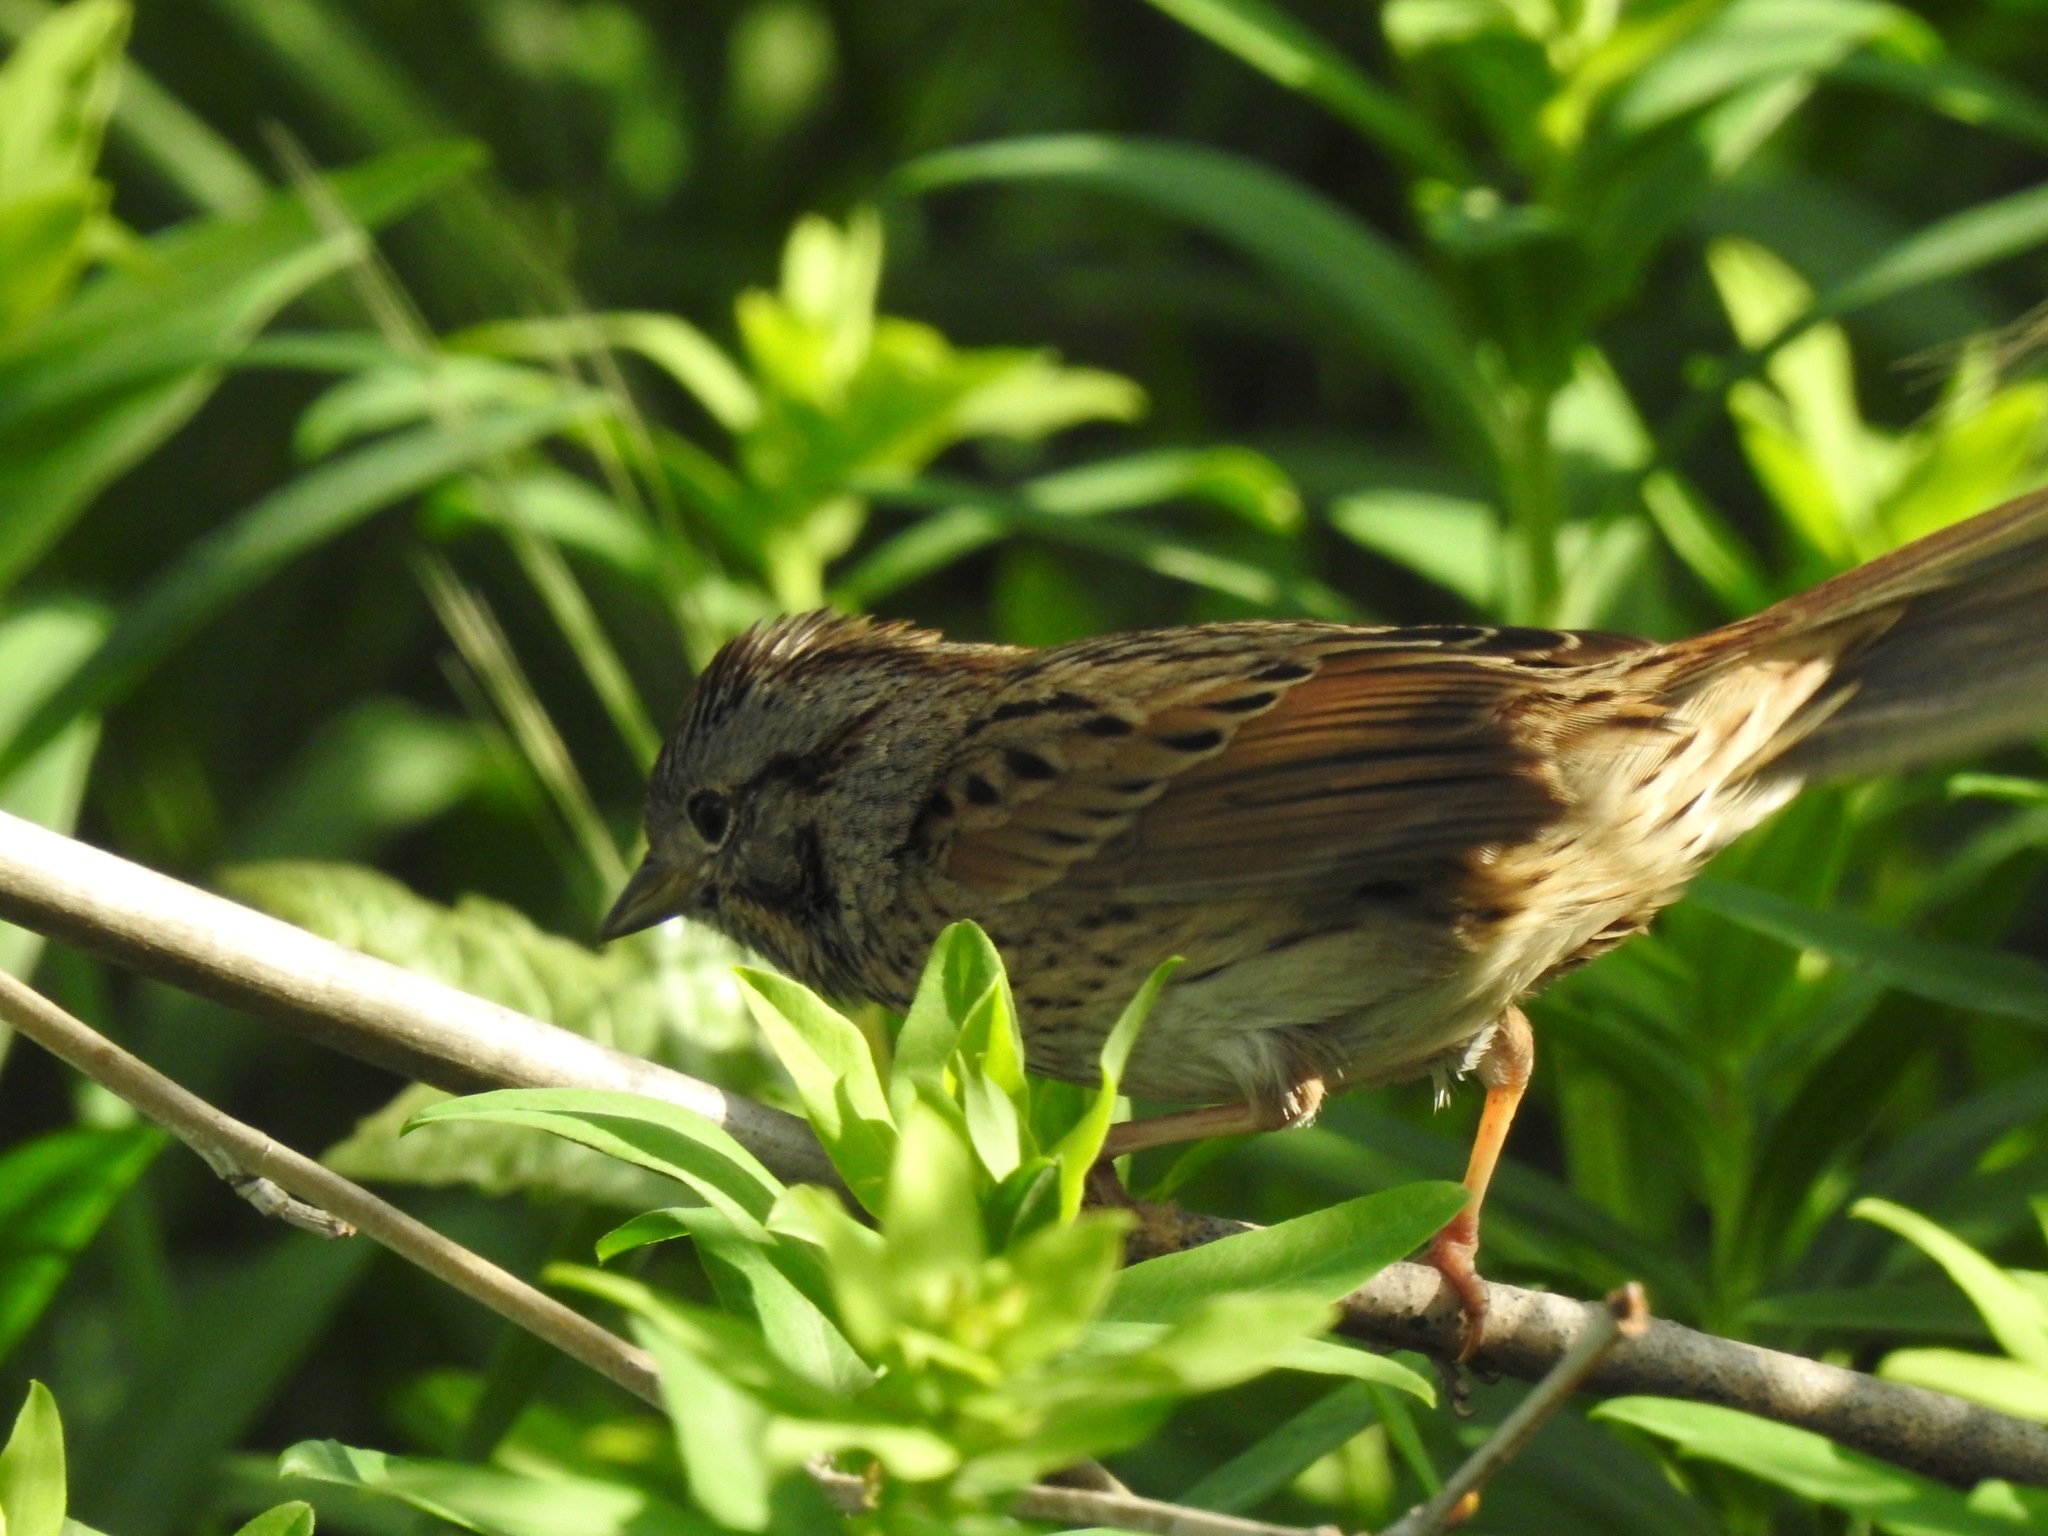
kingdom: Animalia
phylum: Chordata
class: Aves
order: Passeriformes
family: Passerellidae
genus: Melospiza
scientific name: Melospiza lincolnii
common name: Lincoln's sparrow
